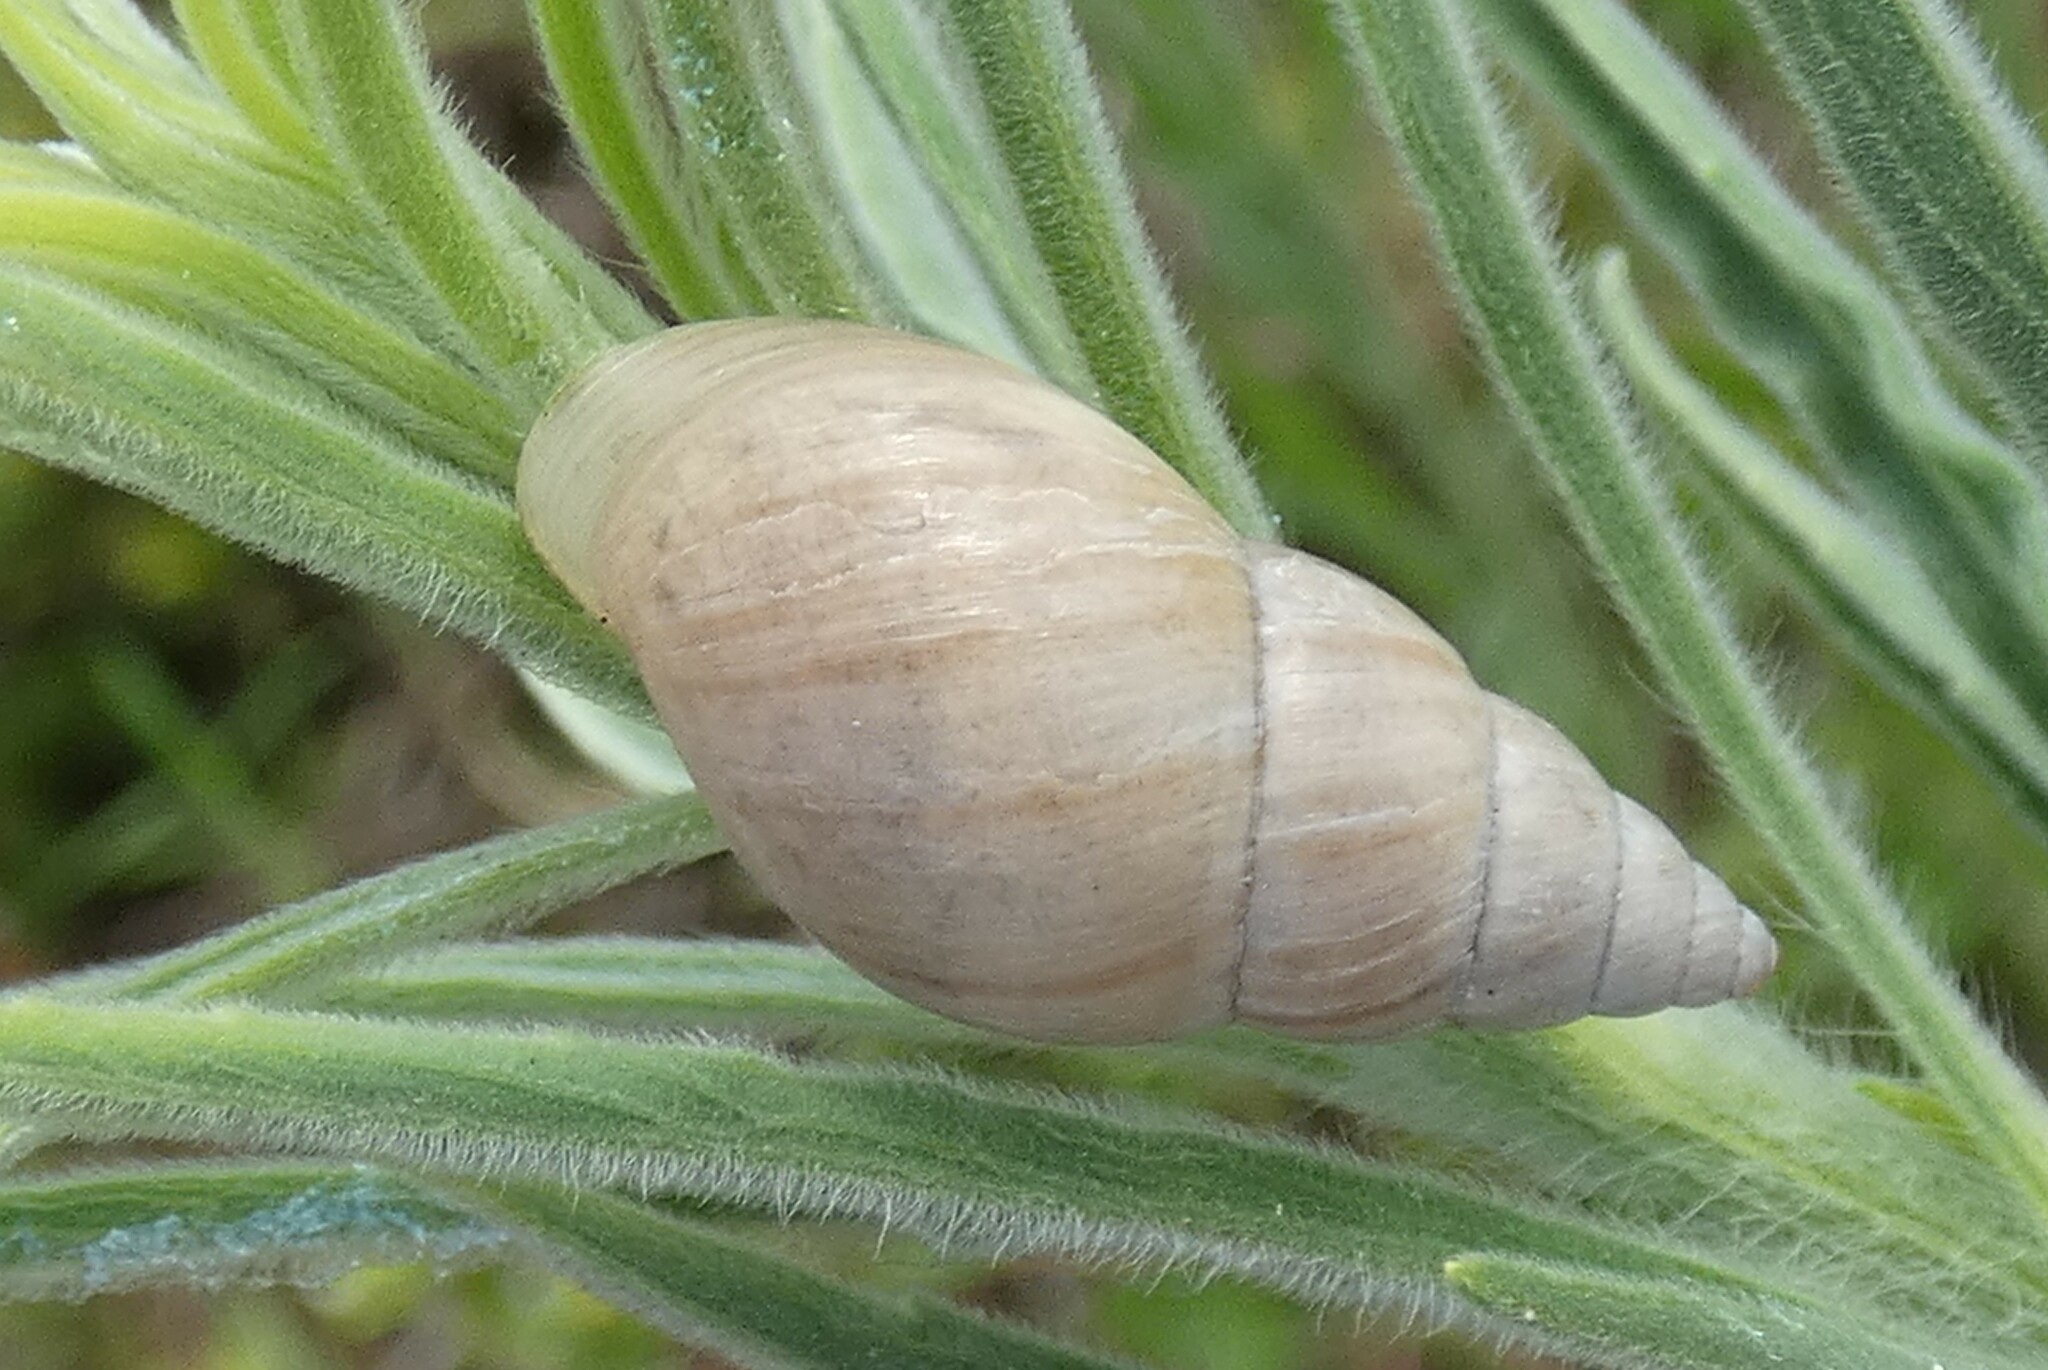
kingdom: Animalia
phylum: Mollusca
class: Gastropoda
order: Stylommatophora
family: Bulimulidae
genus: Bulimulus
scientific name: Bulimulus bonariensis
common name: Snail
